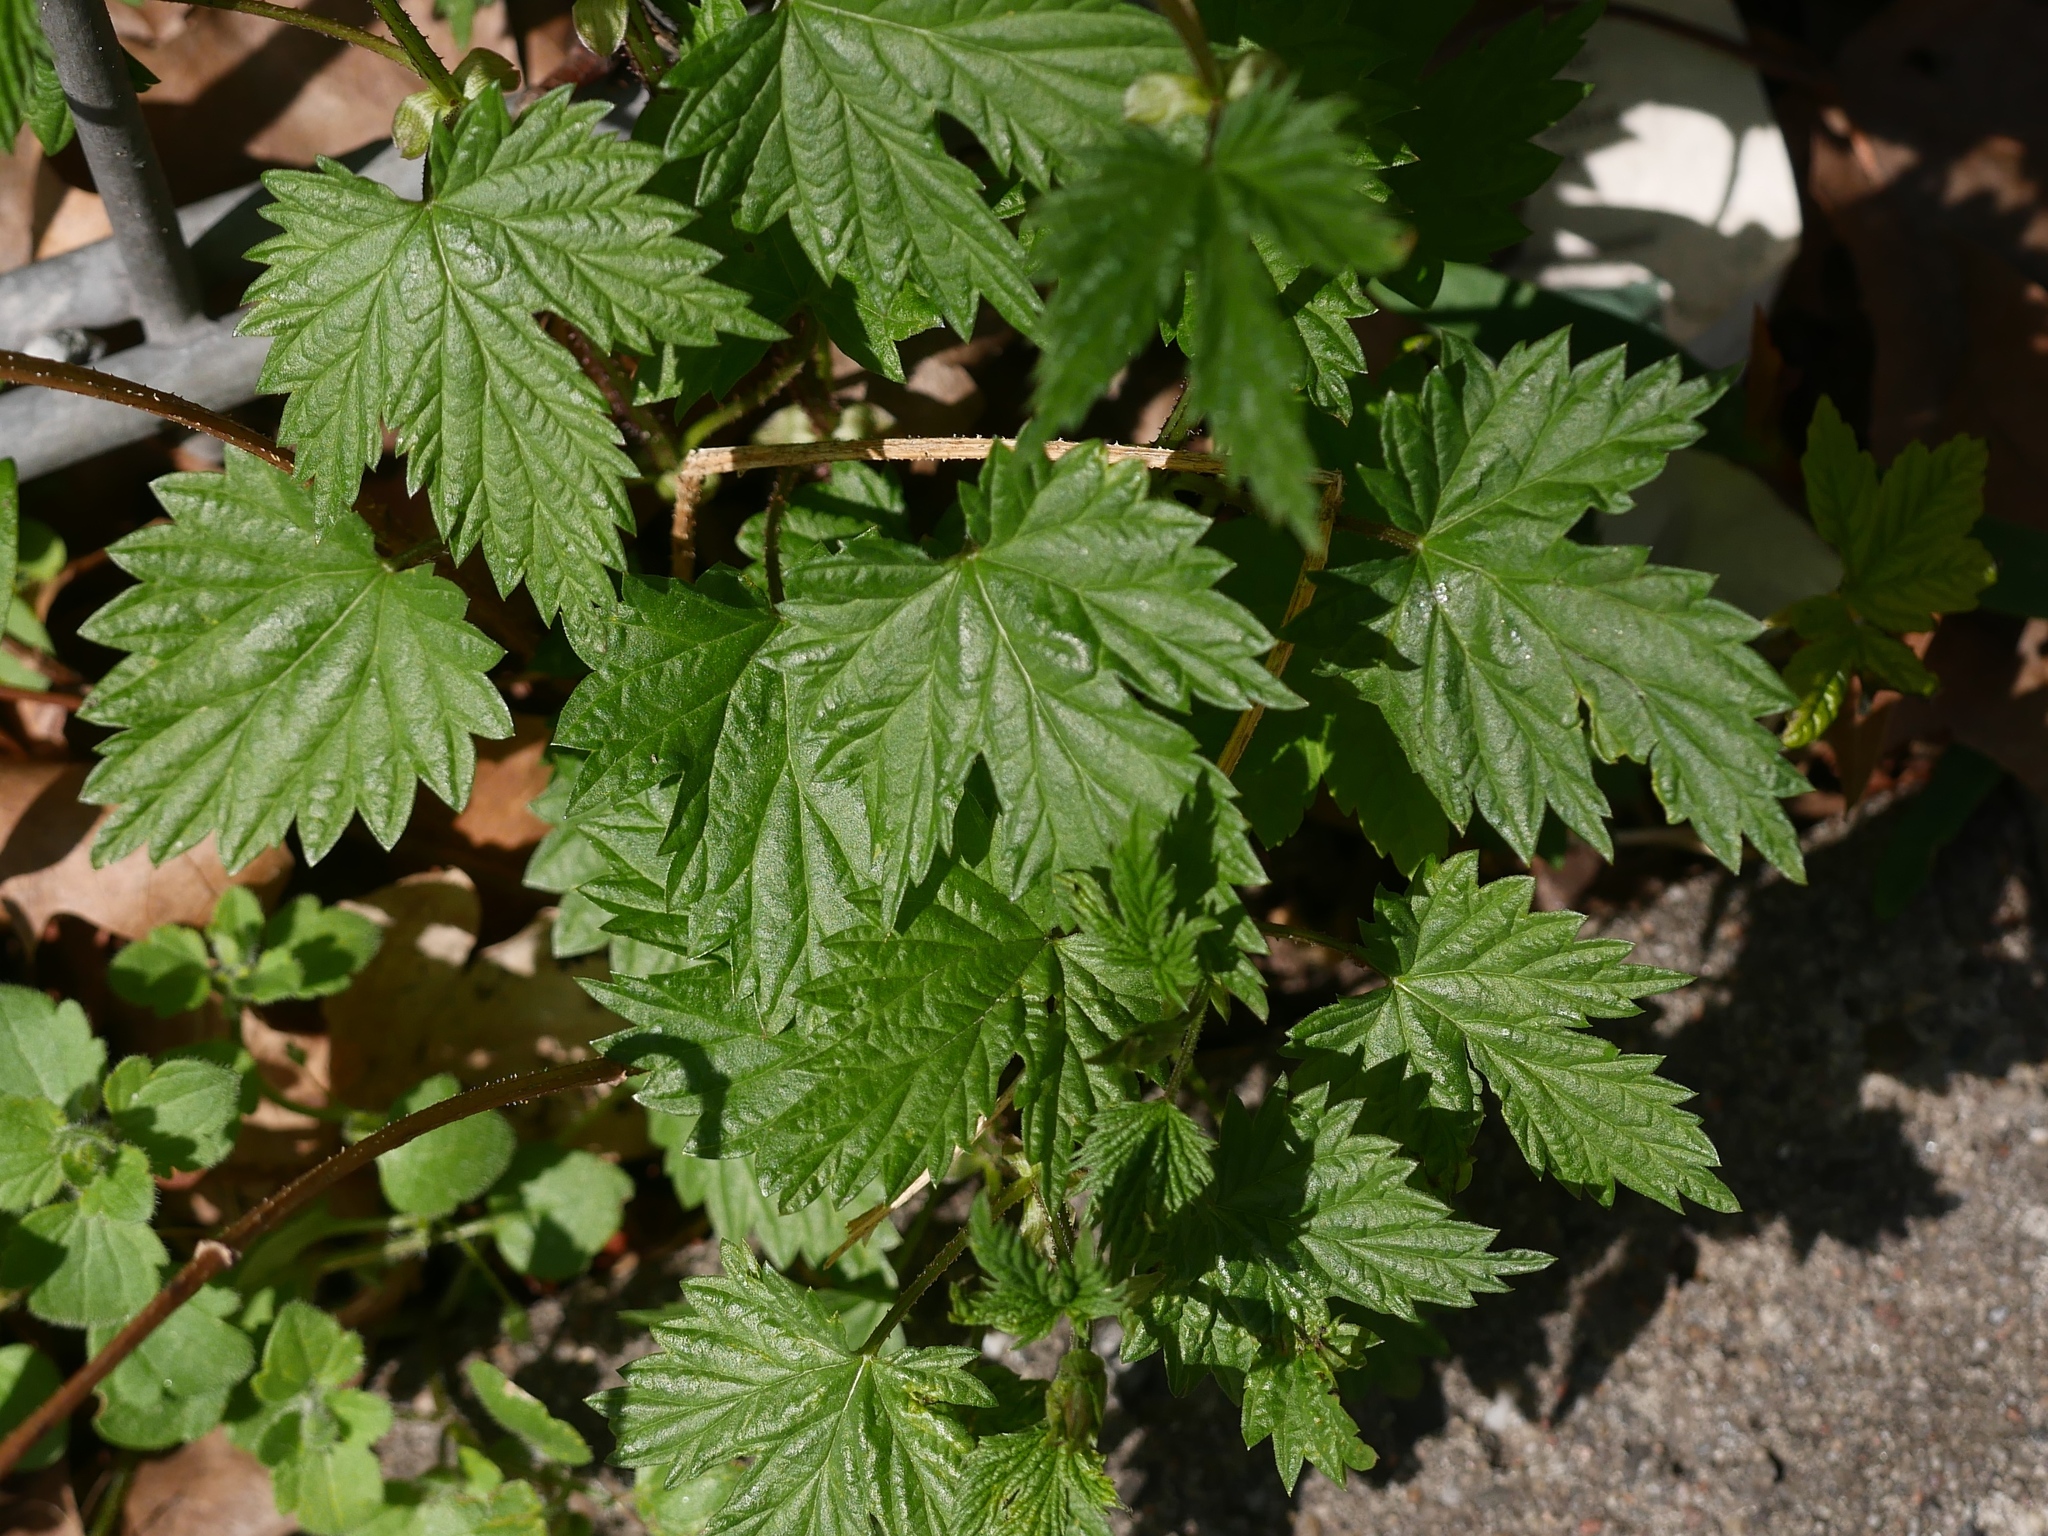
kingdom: Plantae
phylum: Tracheophyta
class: Magnoliopsida
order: Rosales
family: Cannabaceae
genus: Humulus
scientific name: Humulus lupulus
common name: Hop
